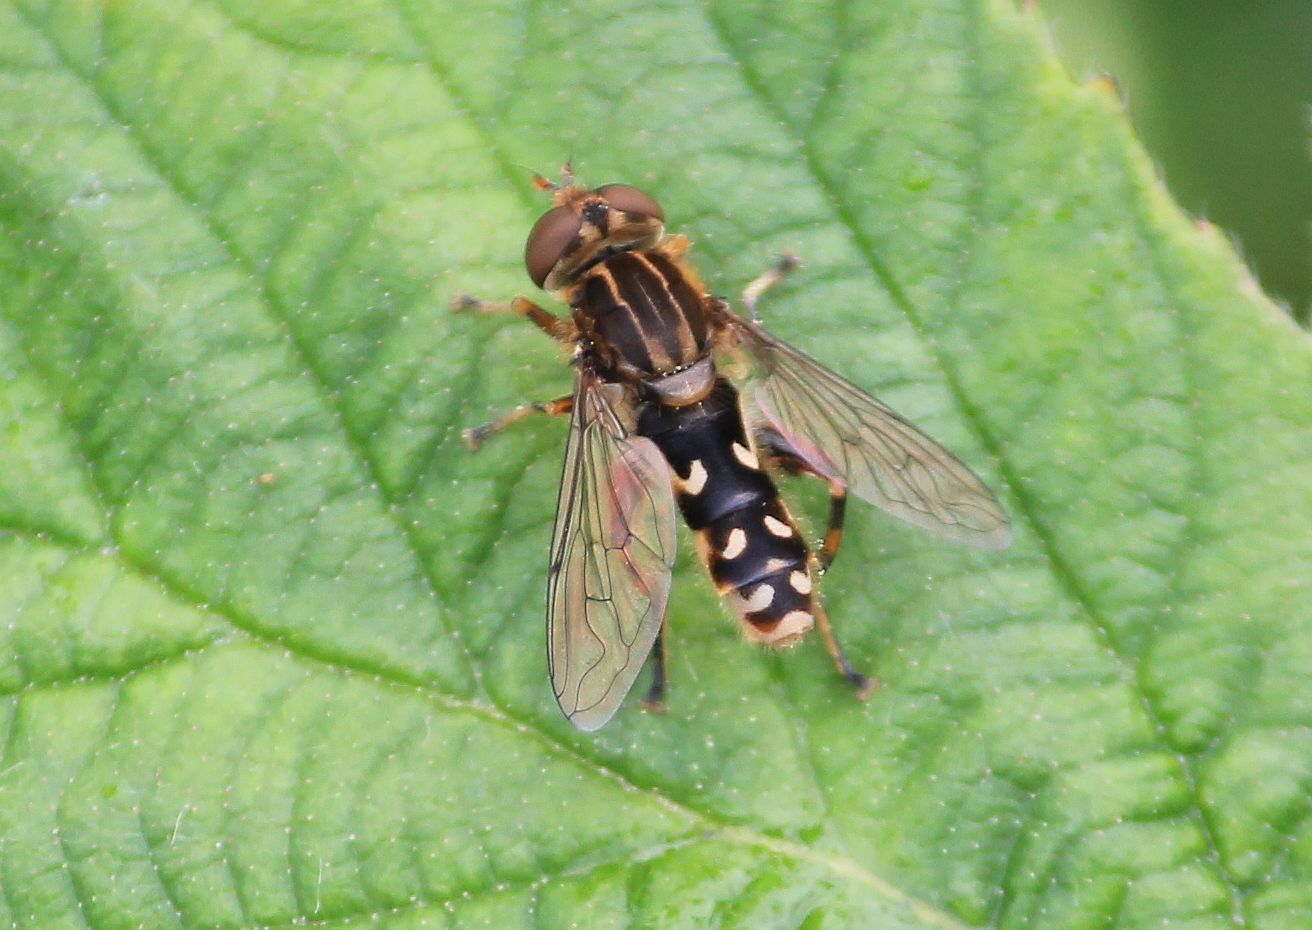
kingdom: Animalia
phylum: Arthropoda
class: Insecta
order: Diptera
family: Syrphidae
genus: Anasimyia
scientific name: Anasimyia contracta
